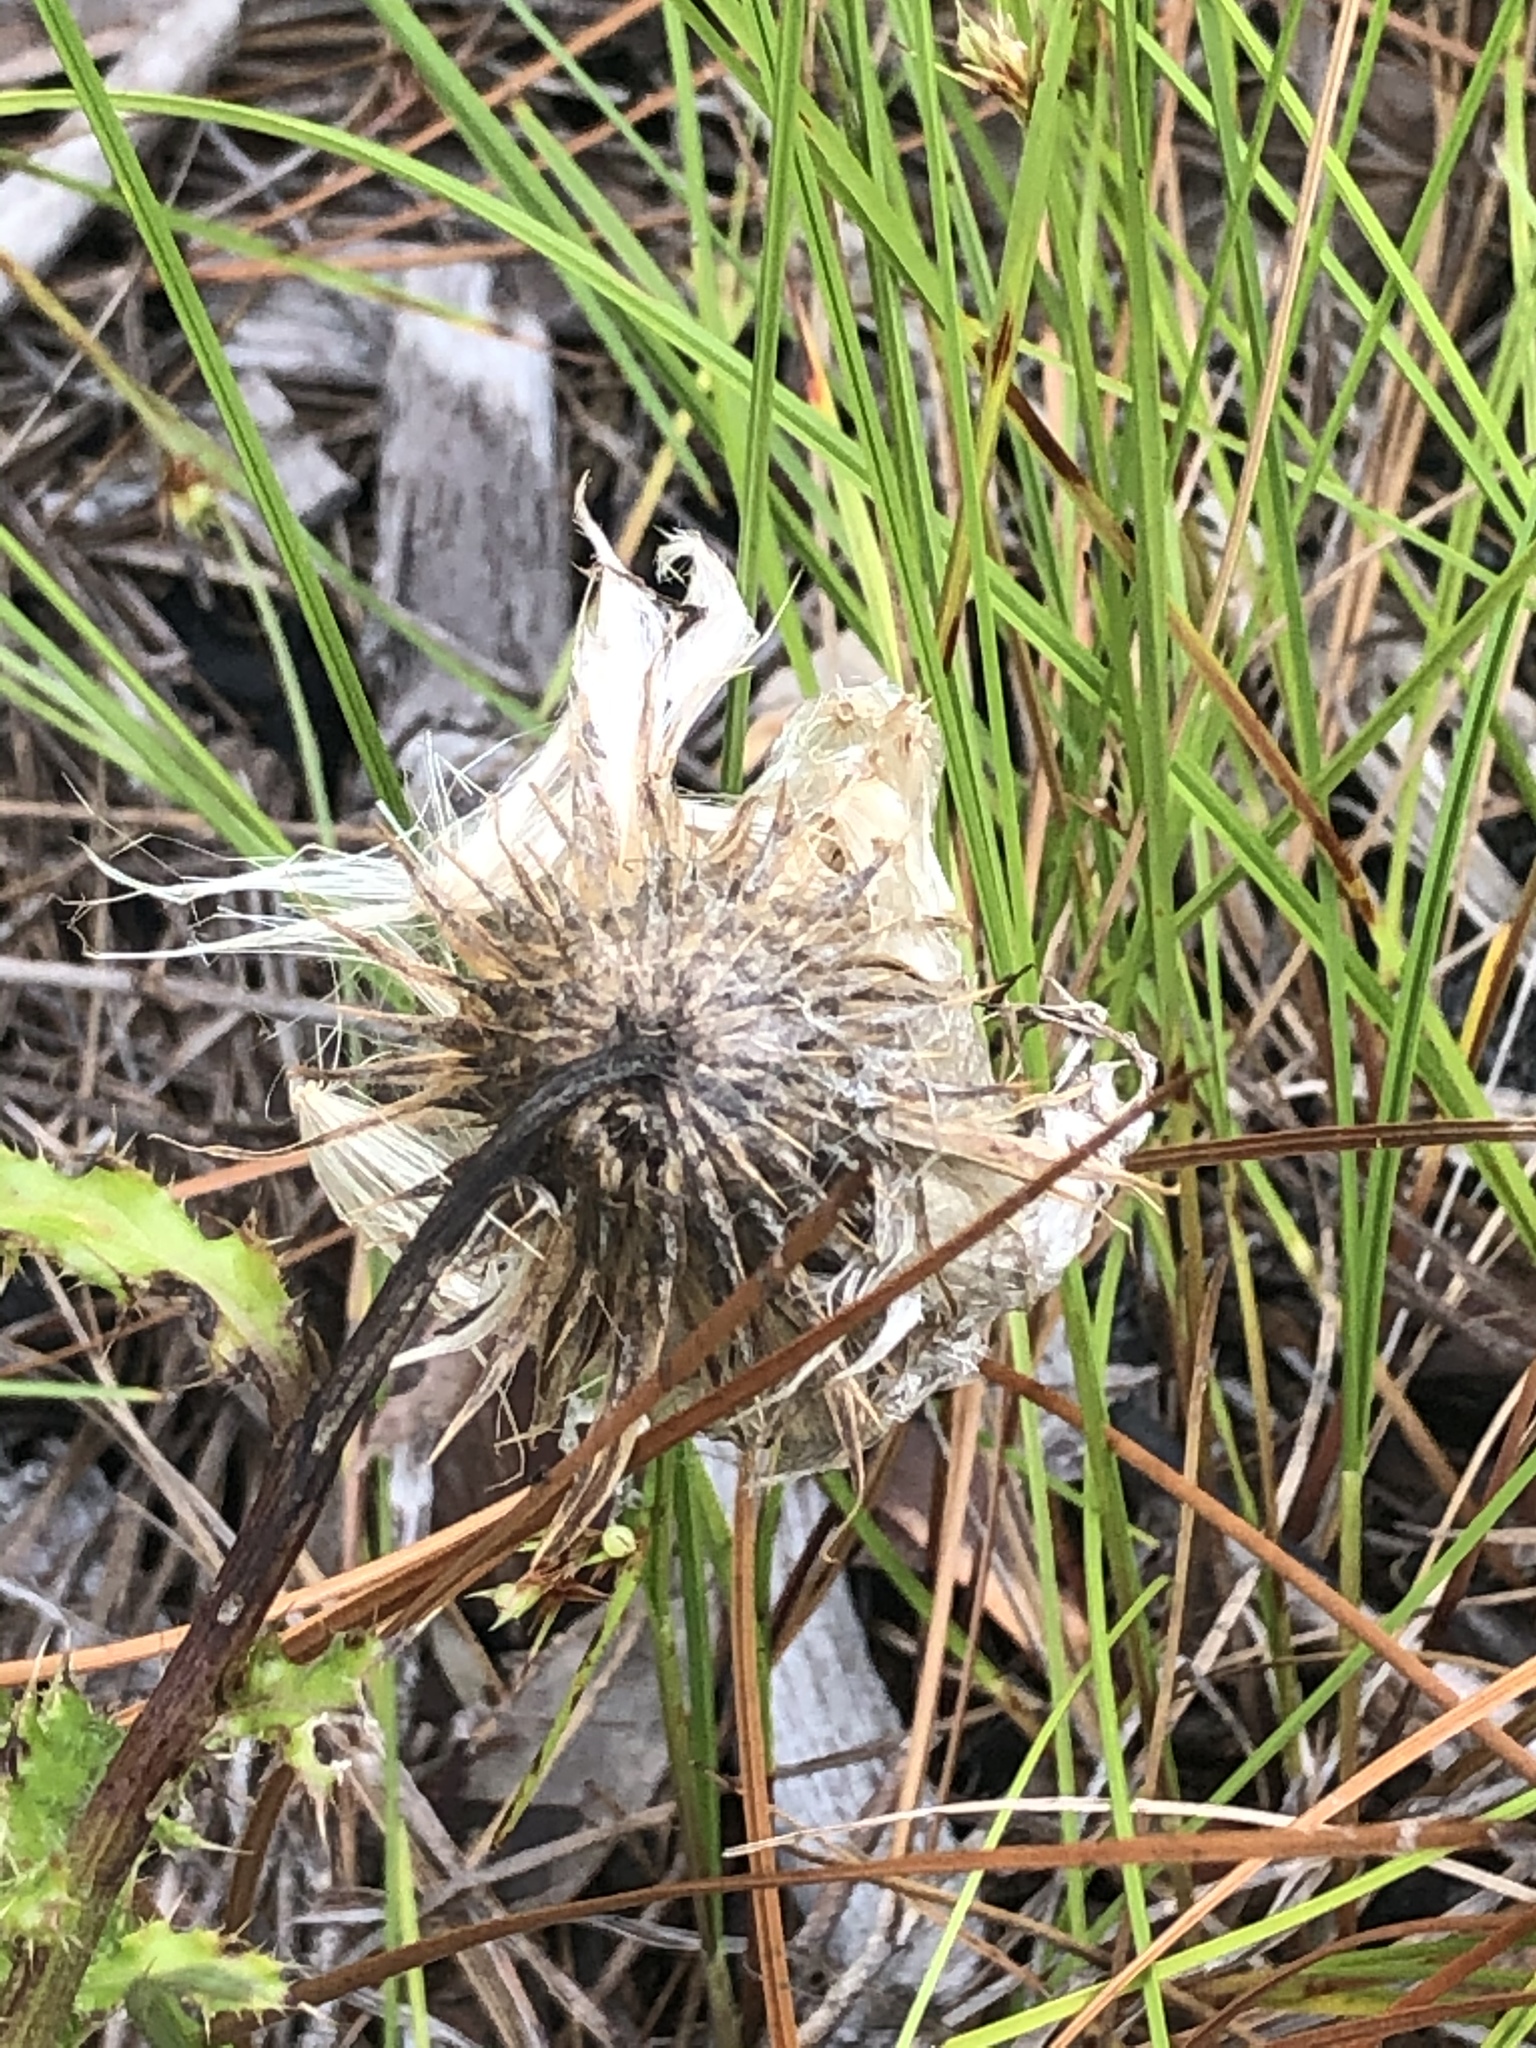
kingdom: Plantae
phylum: Tracheophyta
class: Magnoliopsida
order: Asterales
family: Asteraceae
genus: Cirsium
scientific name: Cirsium repandum
